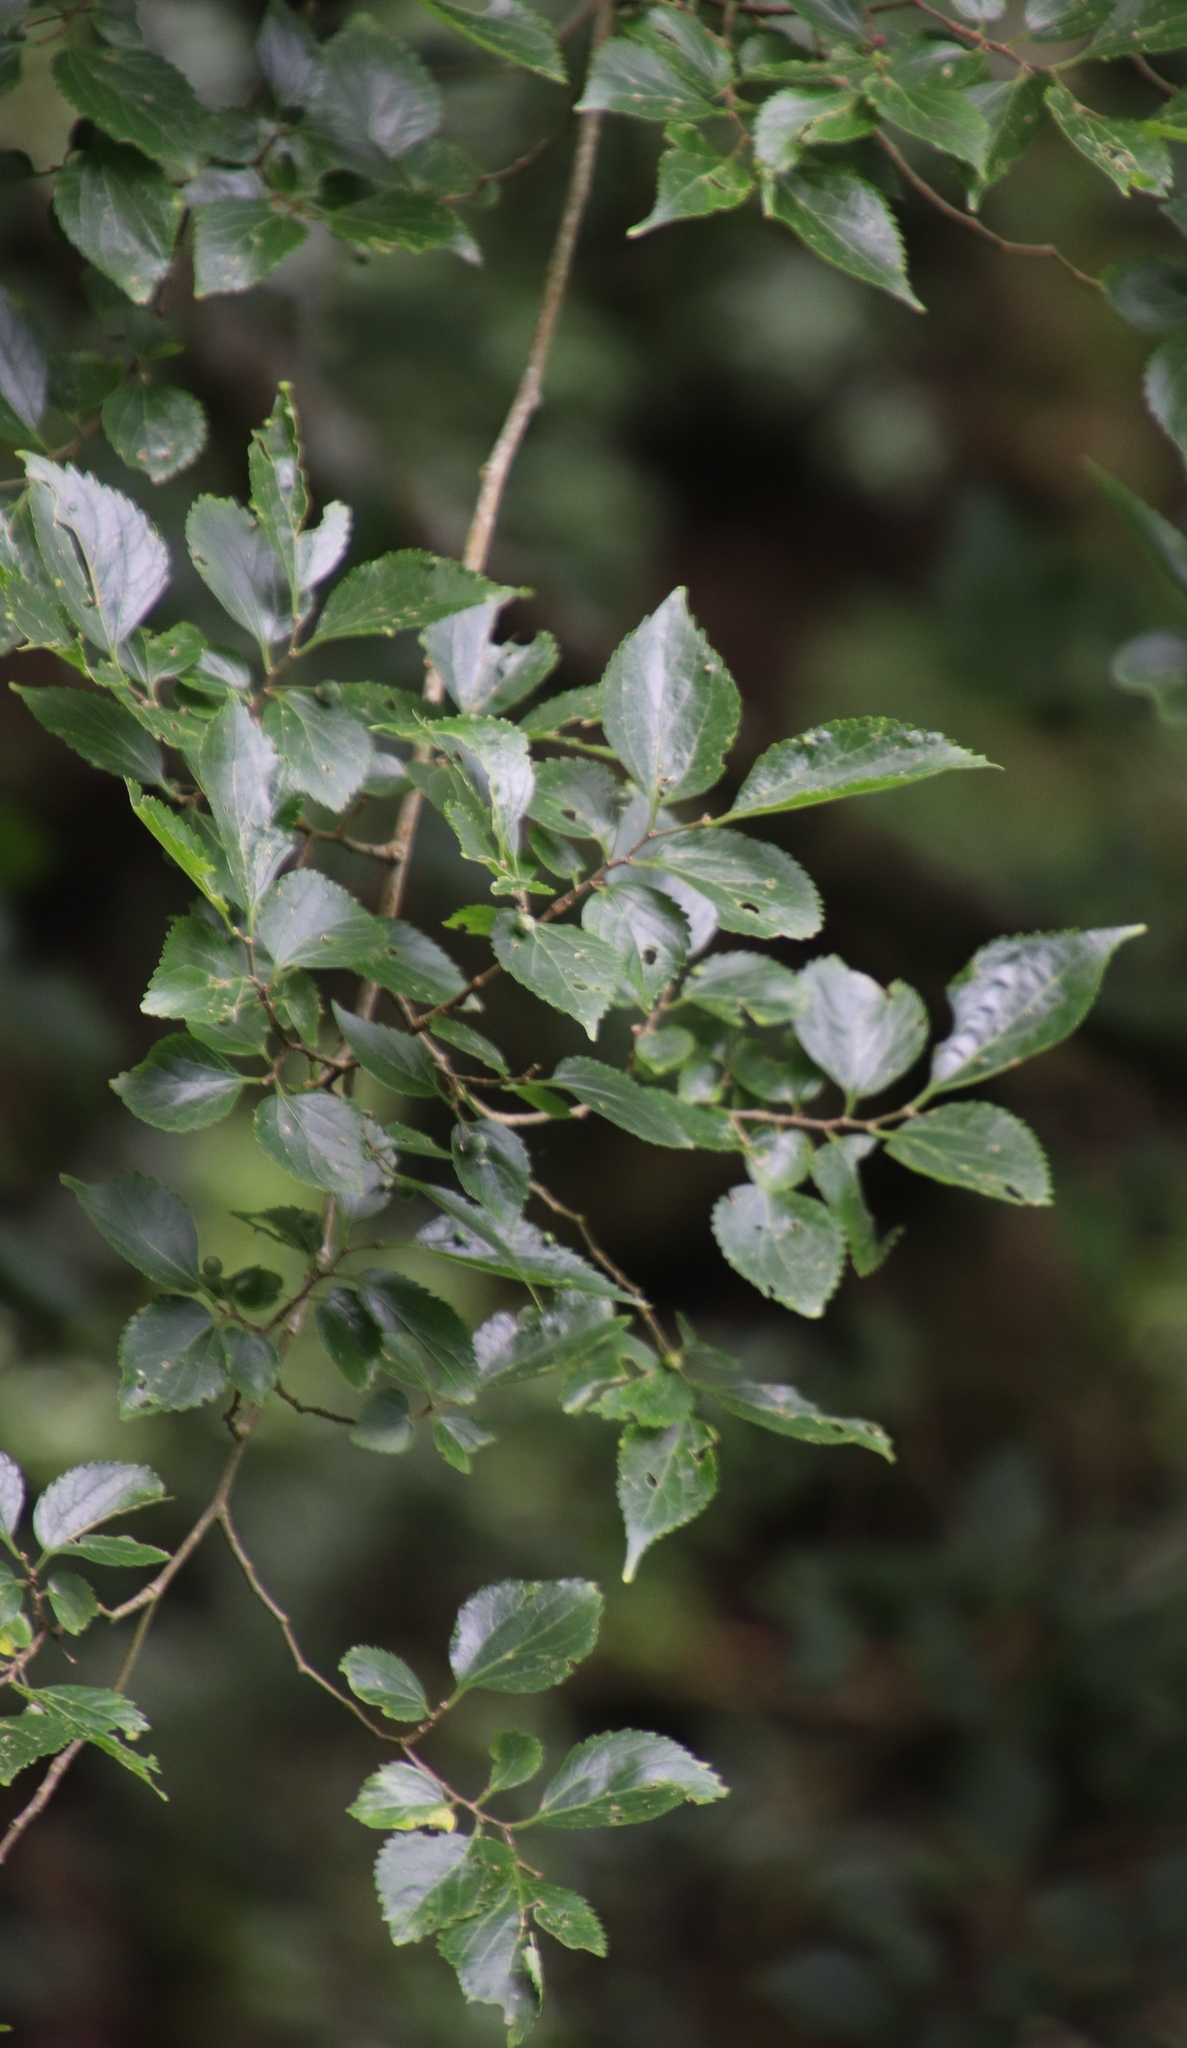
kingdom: Plantae
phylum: Tracheophyta
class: Magnoliopsida
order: Rosales
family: Cannabaceae
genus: Celtis
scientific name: Celtis africana
